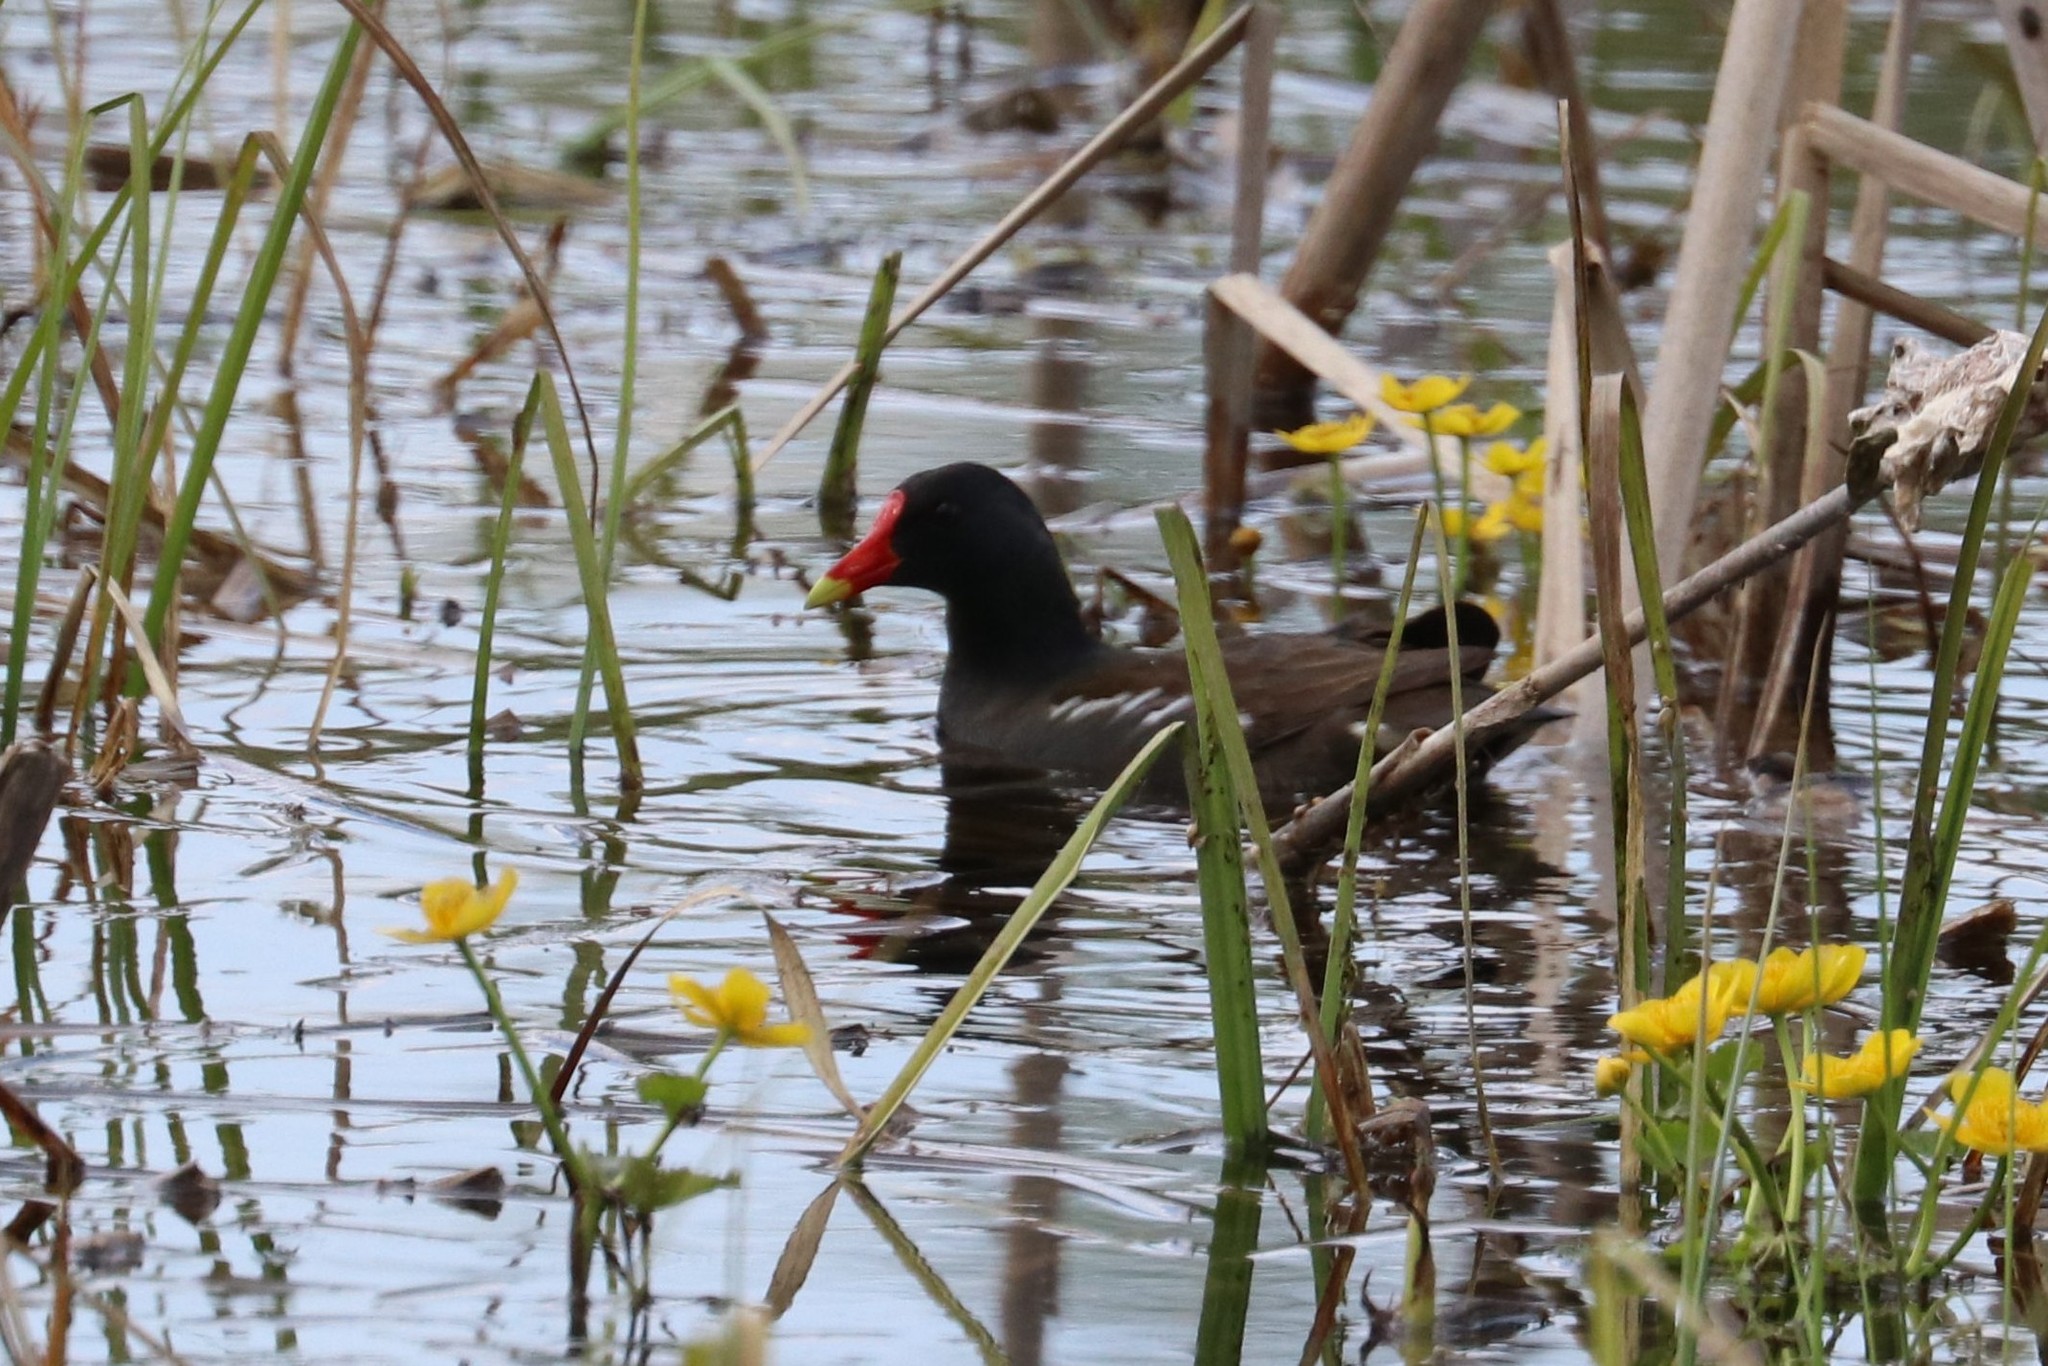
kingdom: Animalia
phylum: Chordata
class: Aves
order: Gruiformes
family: Rallidae
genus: Gallinula
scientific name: Gallinula chloropus
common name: Common moorhen
